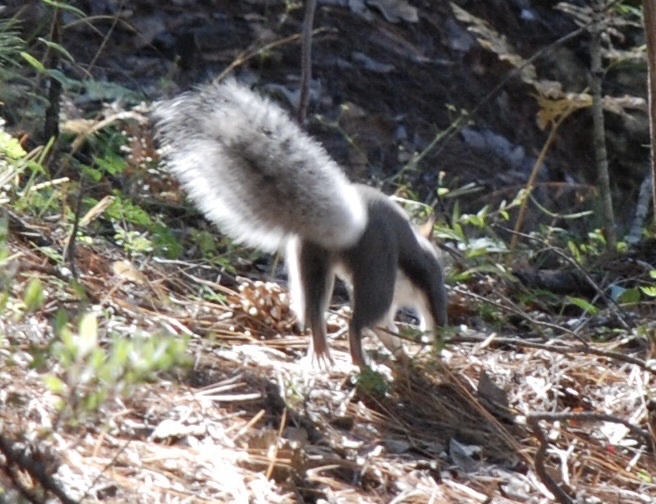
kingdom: Animalia
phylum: Chordata
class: Mammalia
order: Rodentia
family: Sciuridae
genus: Sciurus
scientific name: Sciurus aberti
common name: Abert's squirrel
